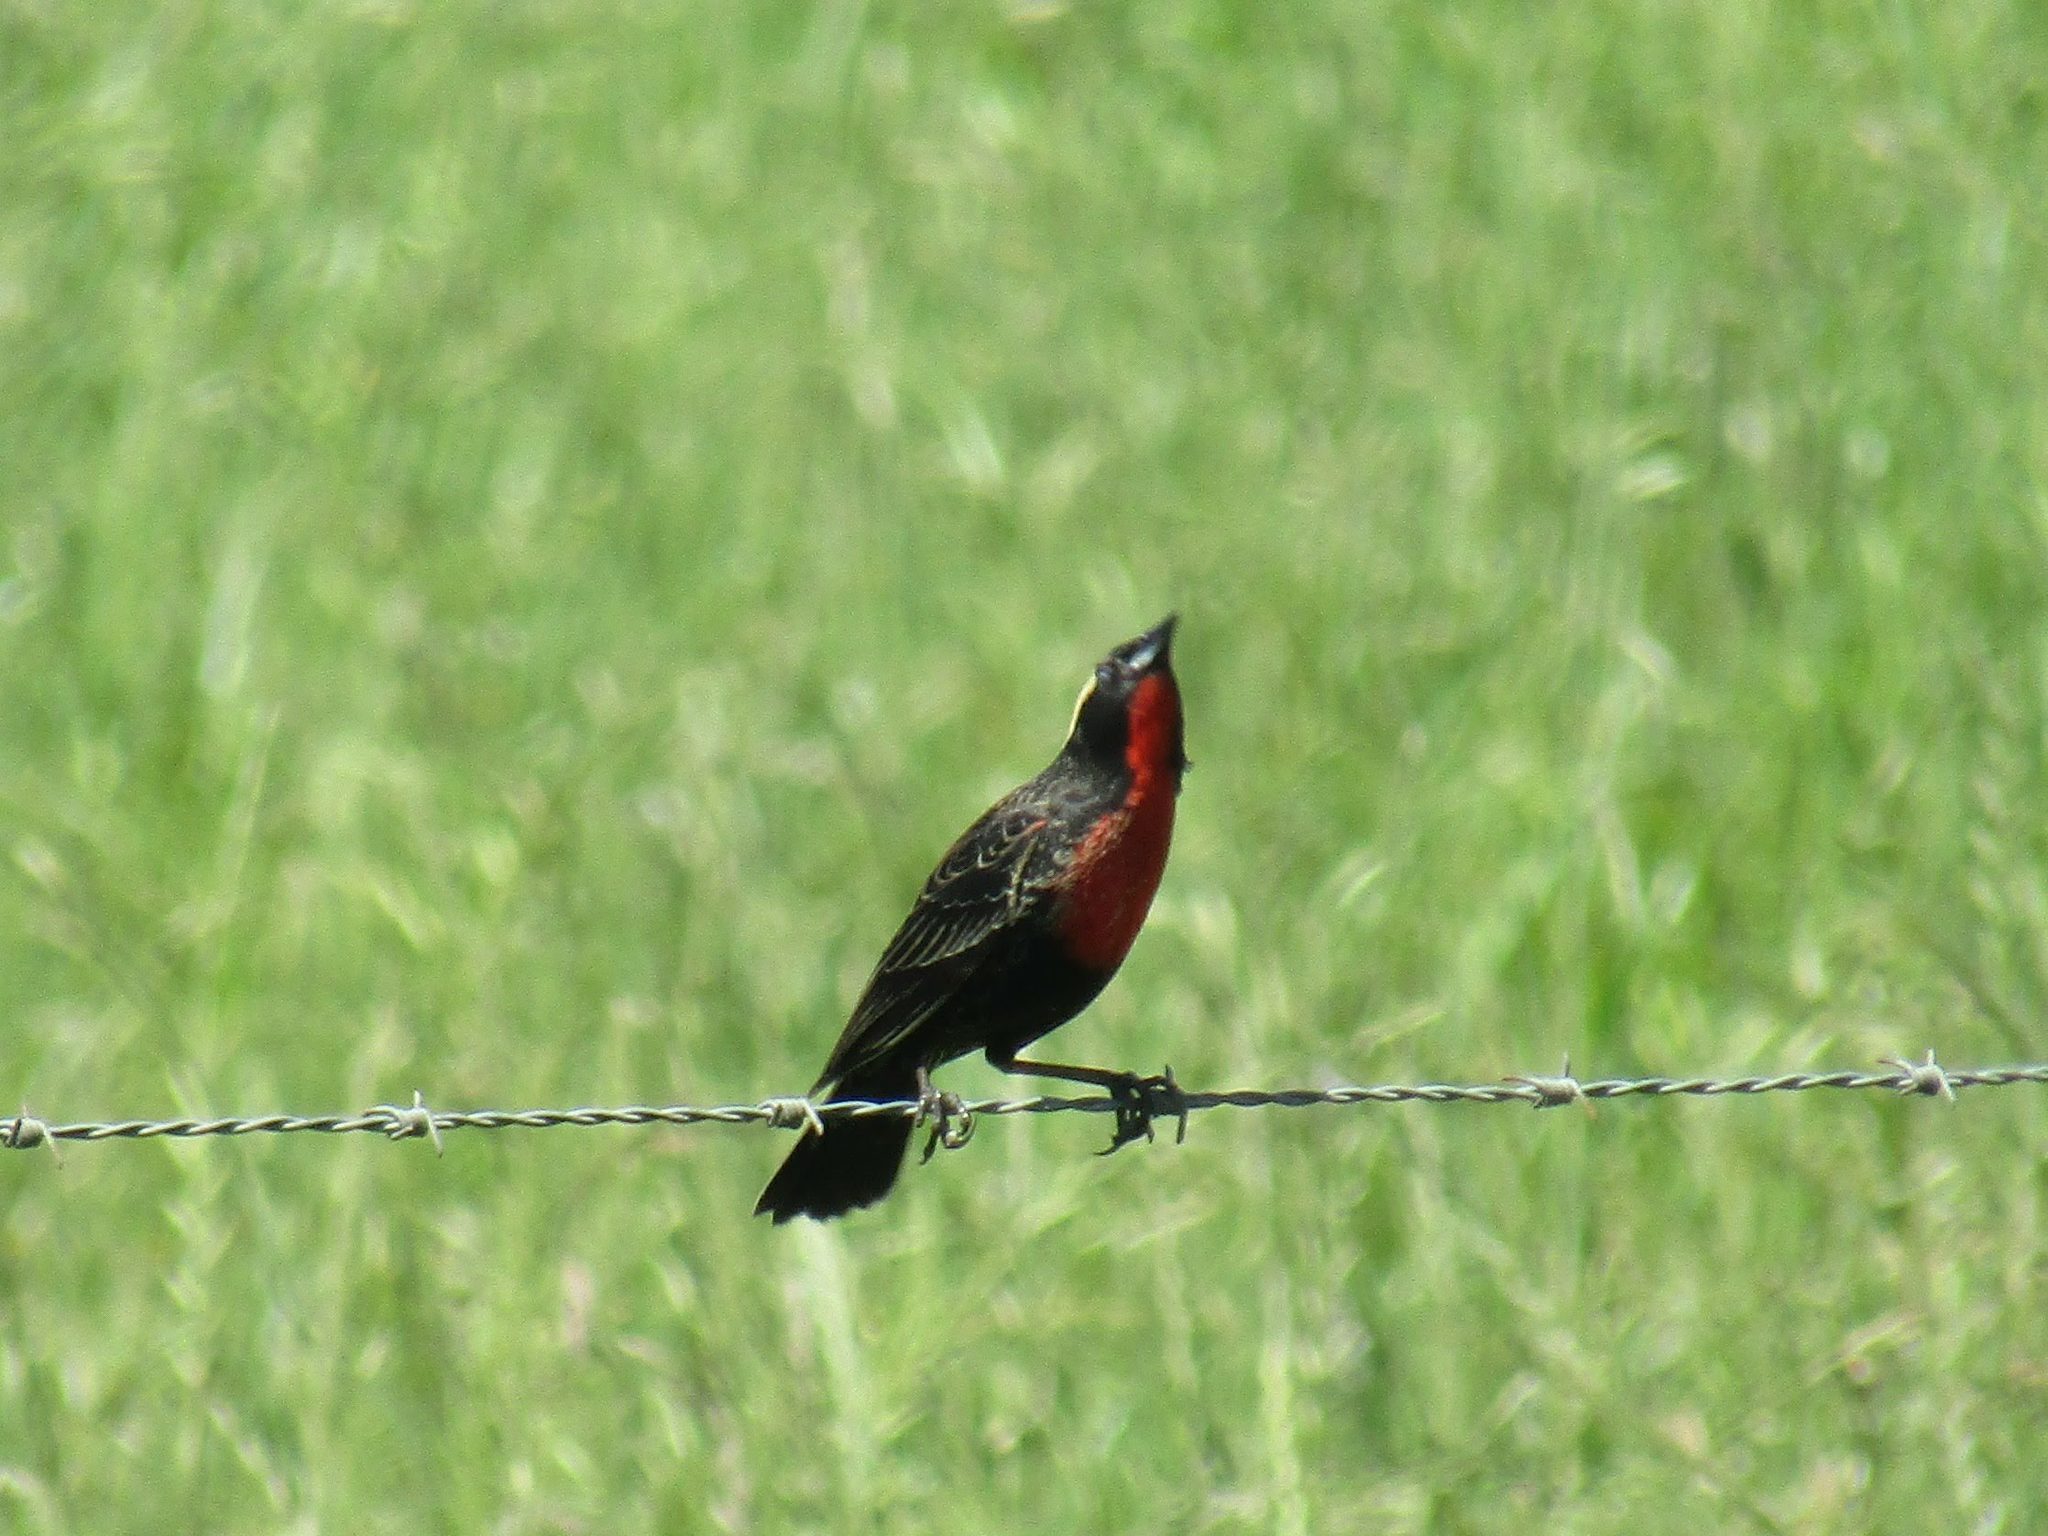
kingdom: Animalia
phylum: Chordata
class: Aves
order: Passeriformes
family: Icteridae
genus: Sturnella
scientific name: Sturnella superciliaris
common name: White-browed blackbird
